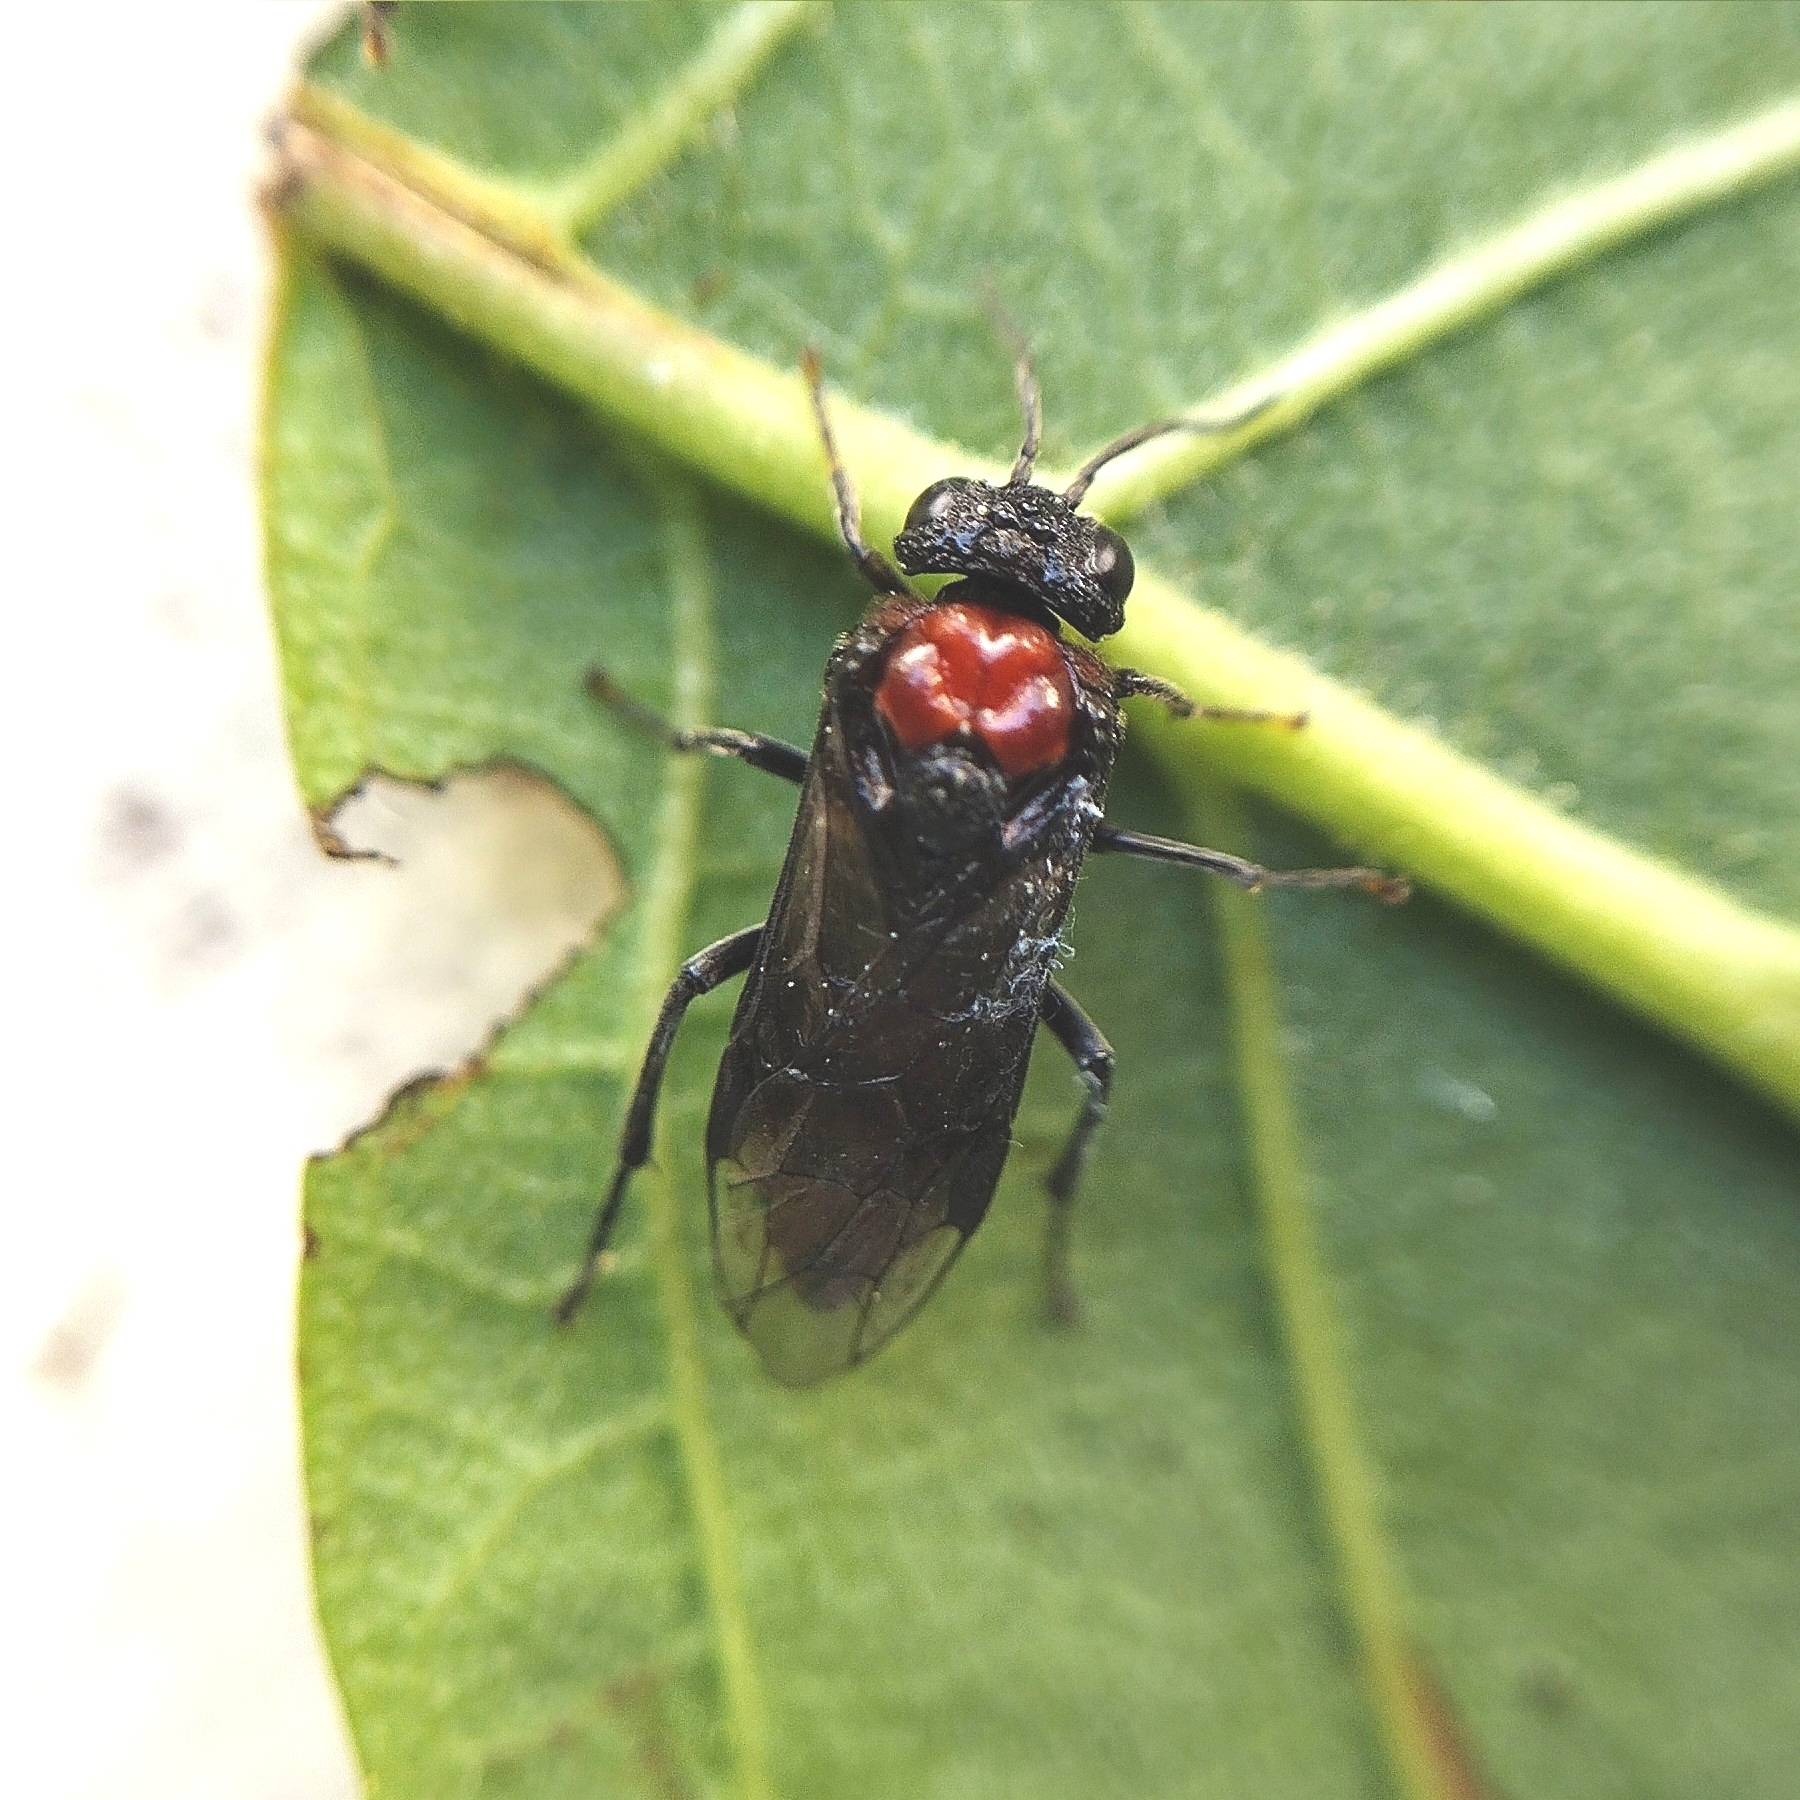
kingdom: Animalia
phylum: Arthropoda
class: Insecta
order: Hymenoptera
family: Tenthredinidae
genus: Eriocampa
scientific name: Eriocampa ovata
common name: Alder wooly sawfly
